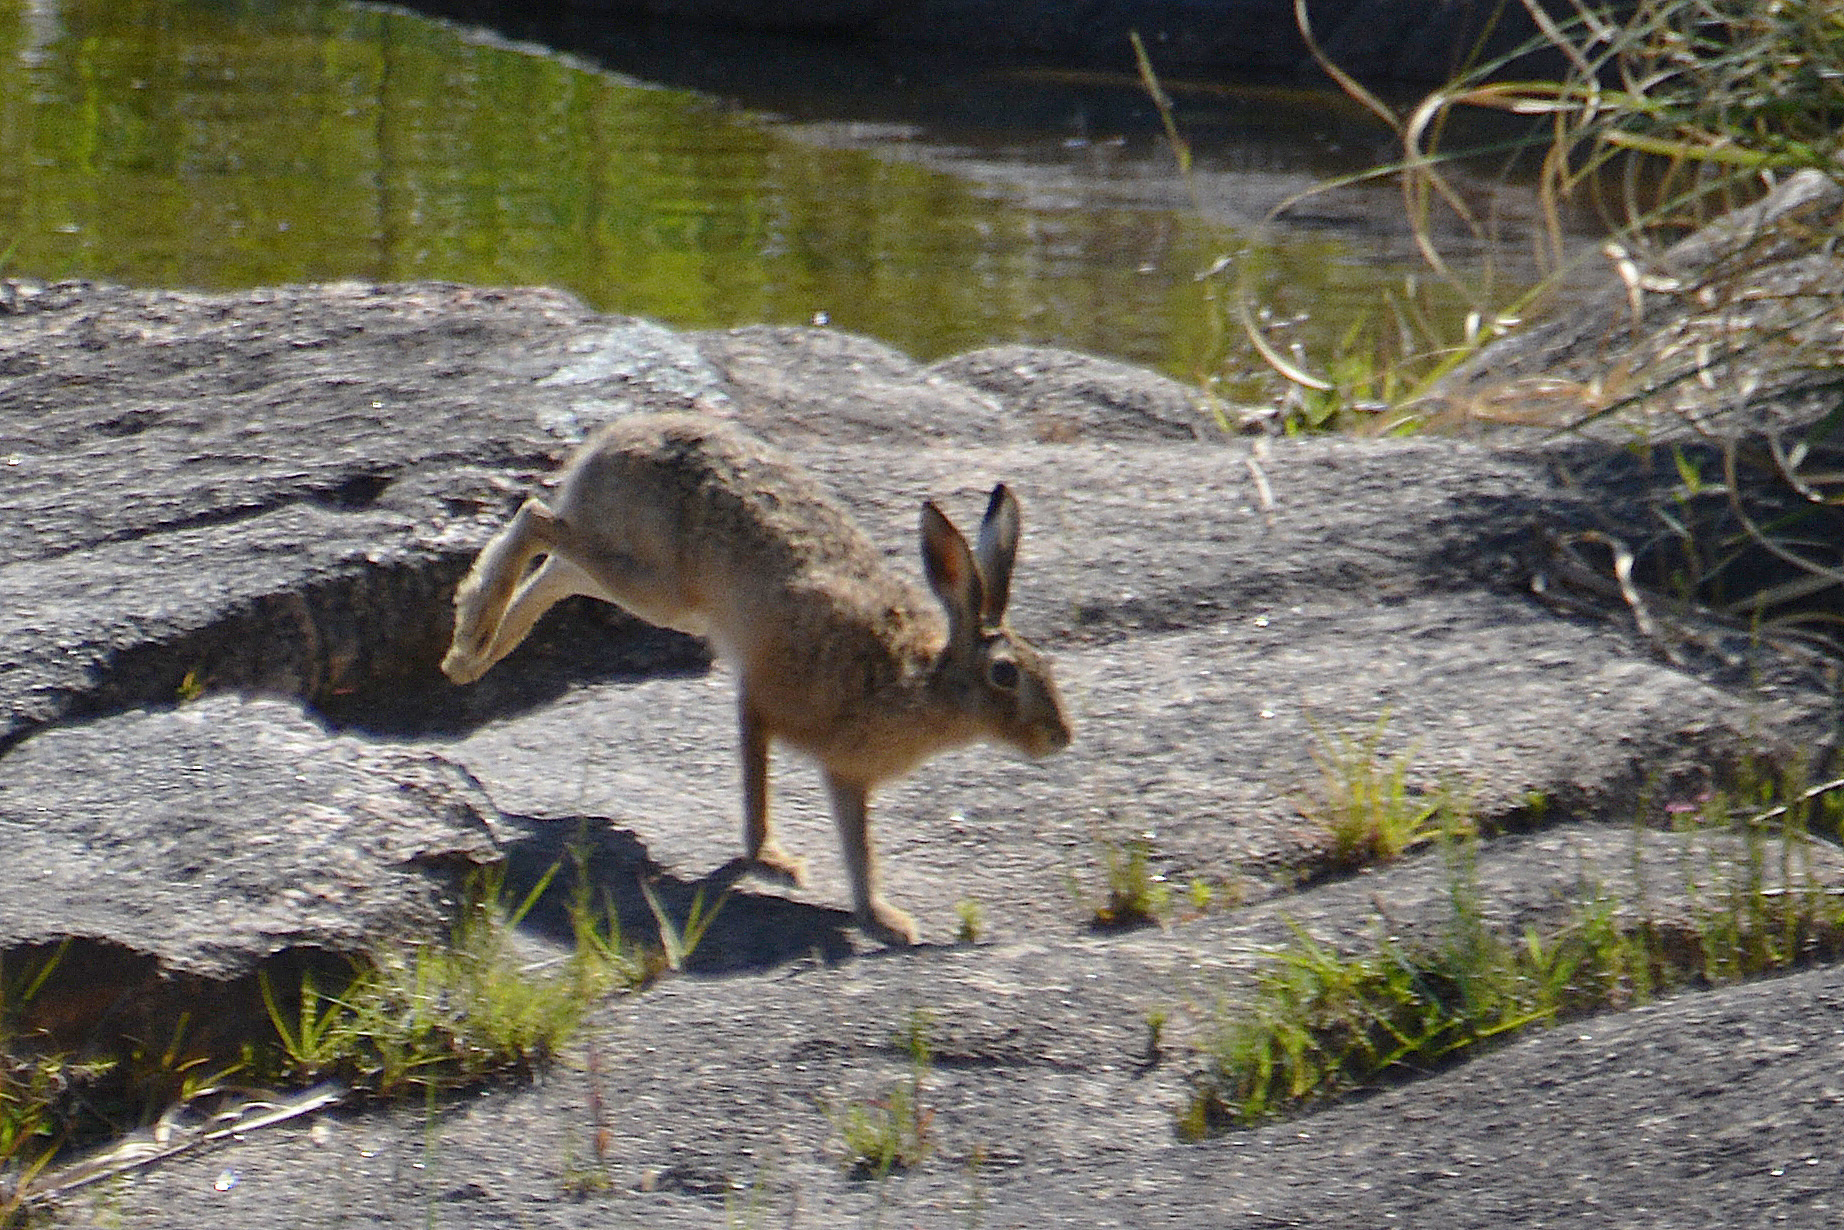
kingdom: Animalia
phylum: Chordata
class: Mammalia
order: Lagomorpha
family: Leporidae
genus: Lepus
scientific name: Lepus europaeus
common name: European hare
